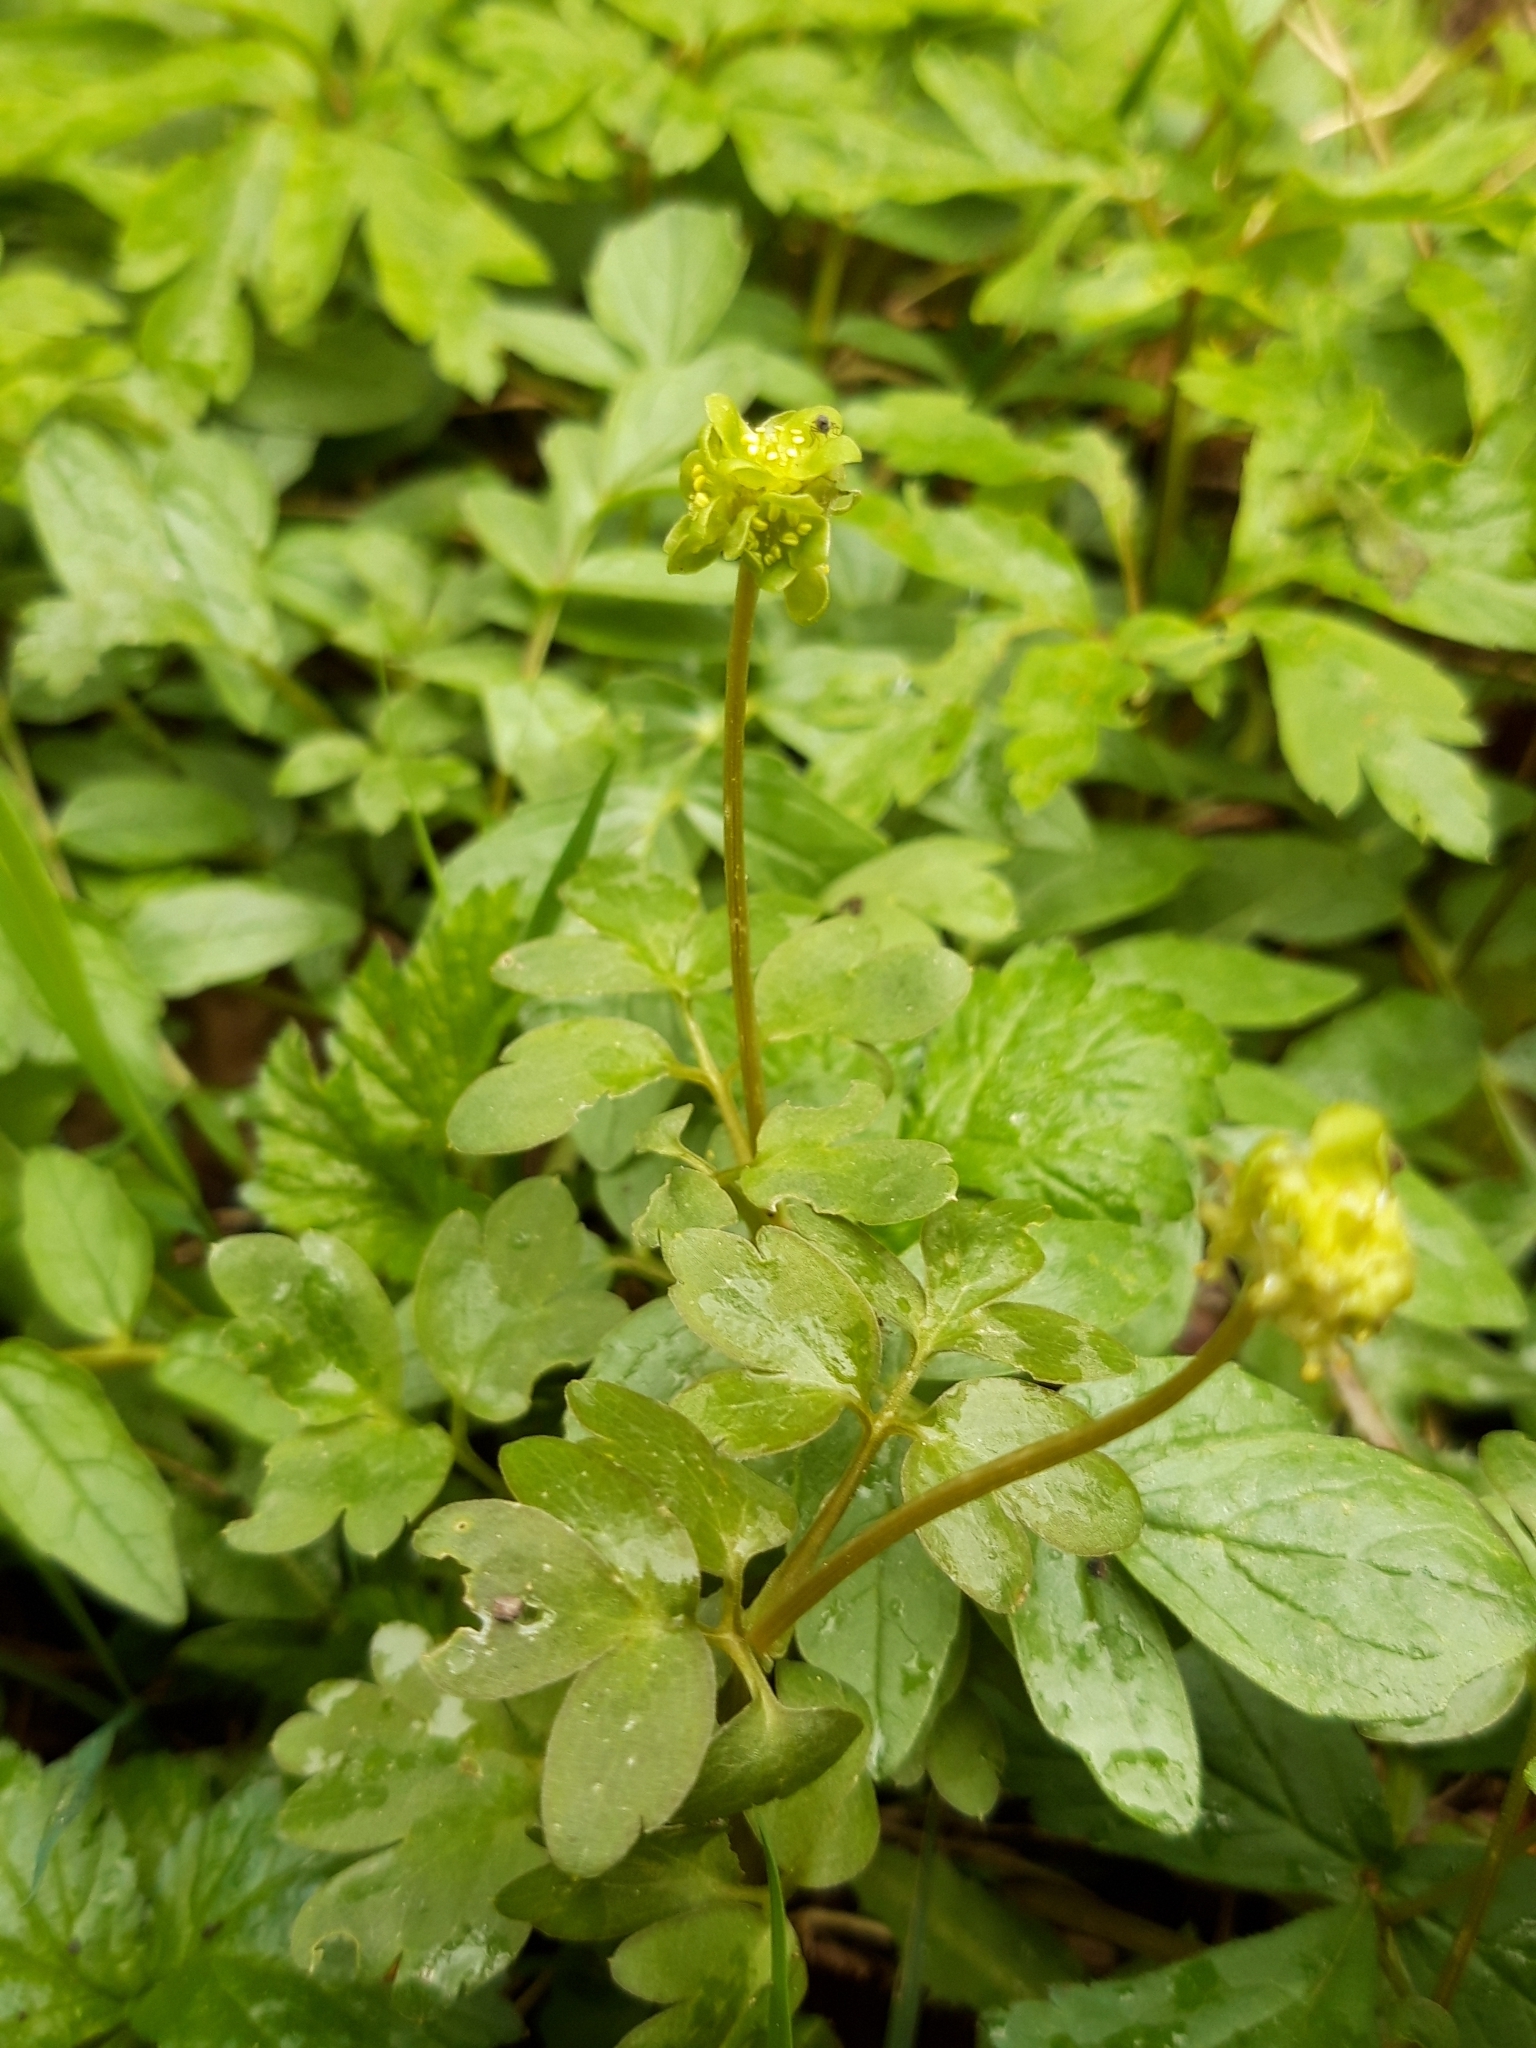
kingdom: Plantae
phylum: Tracheophyta
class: Magnoliopsida
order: Dipsacales
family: Viburnaceae
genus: Adoxa
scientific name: Adoxa moschatellina
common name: Moschatel
